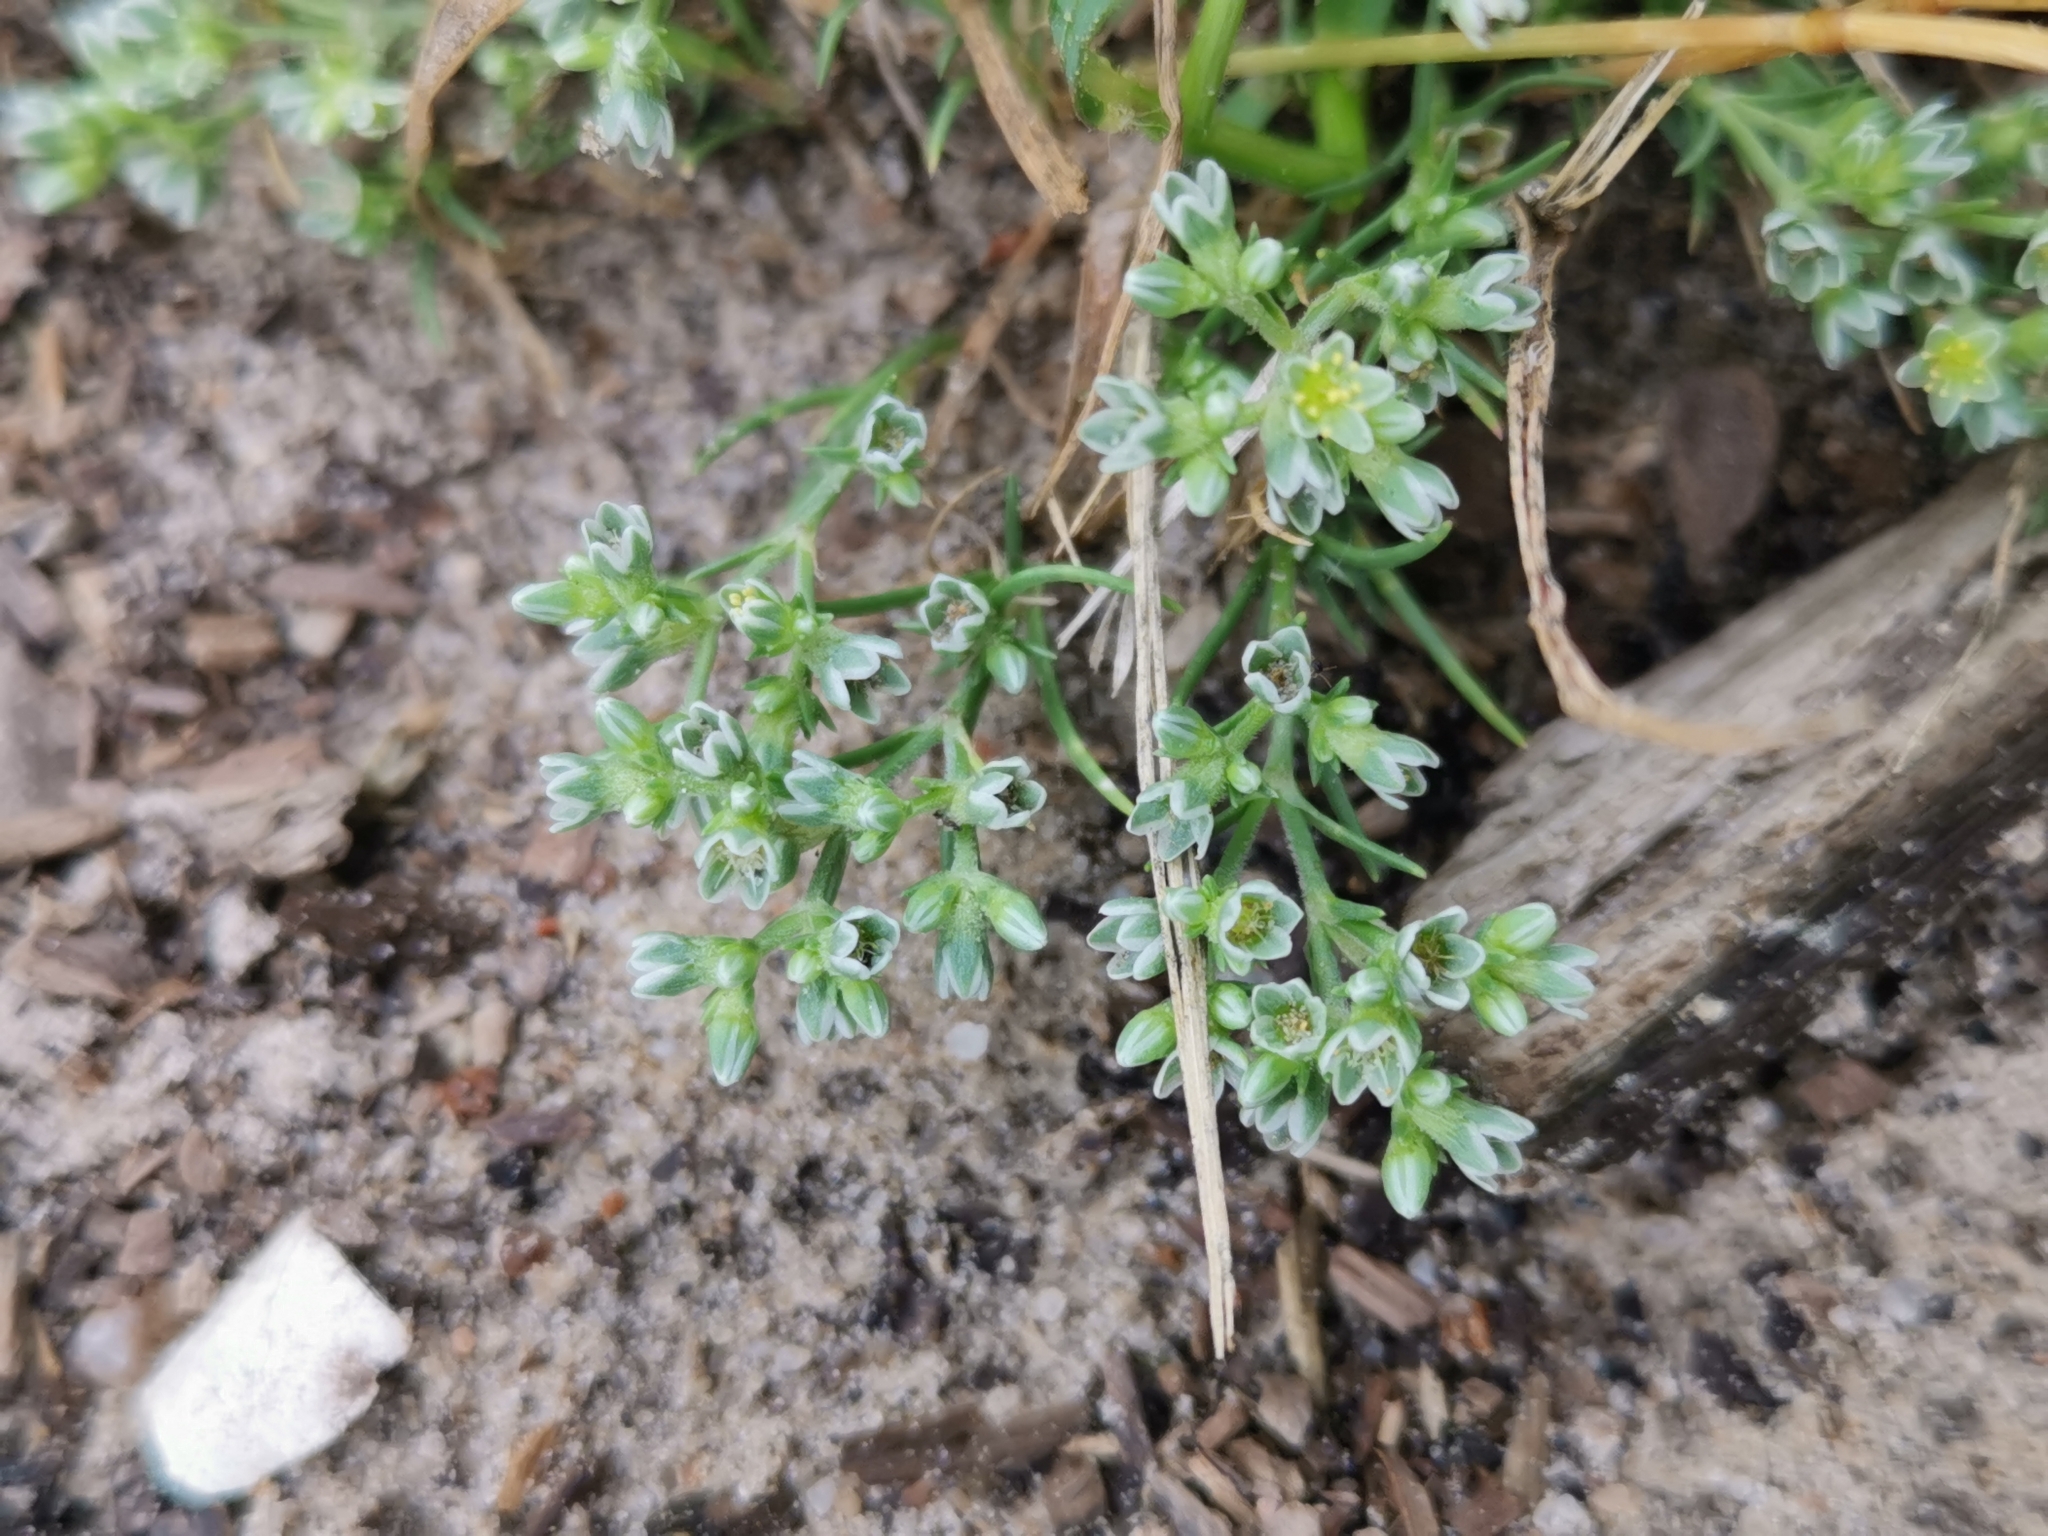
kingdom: Plantae
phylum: Tracheophyta
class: Magnoliopsida
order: Caryophyllales
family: Caryophyllaceae
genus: Scleranthus
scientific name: Scleranthus perennis
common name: Perennial knawel
